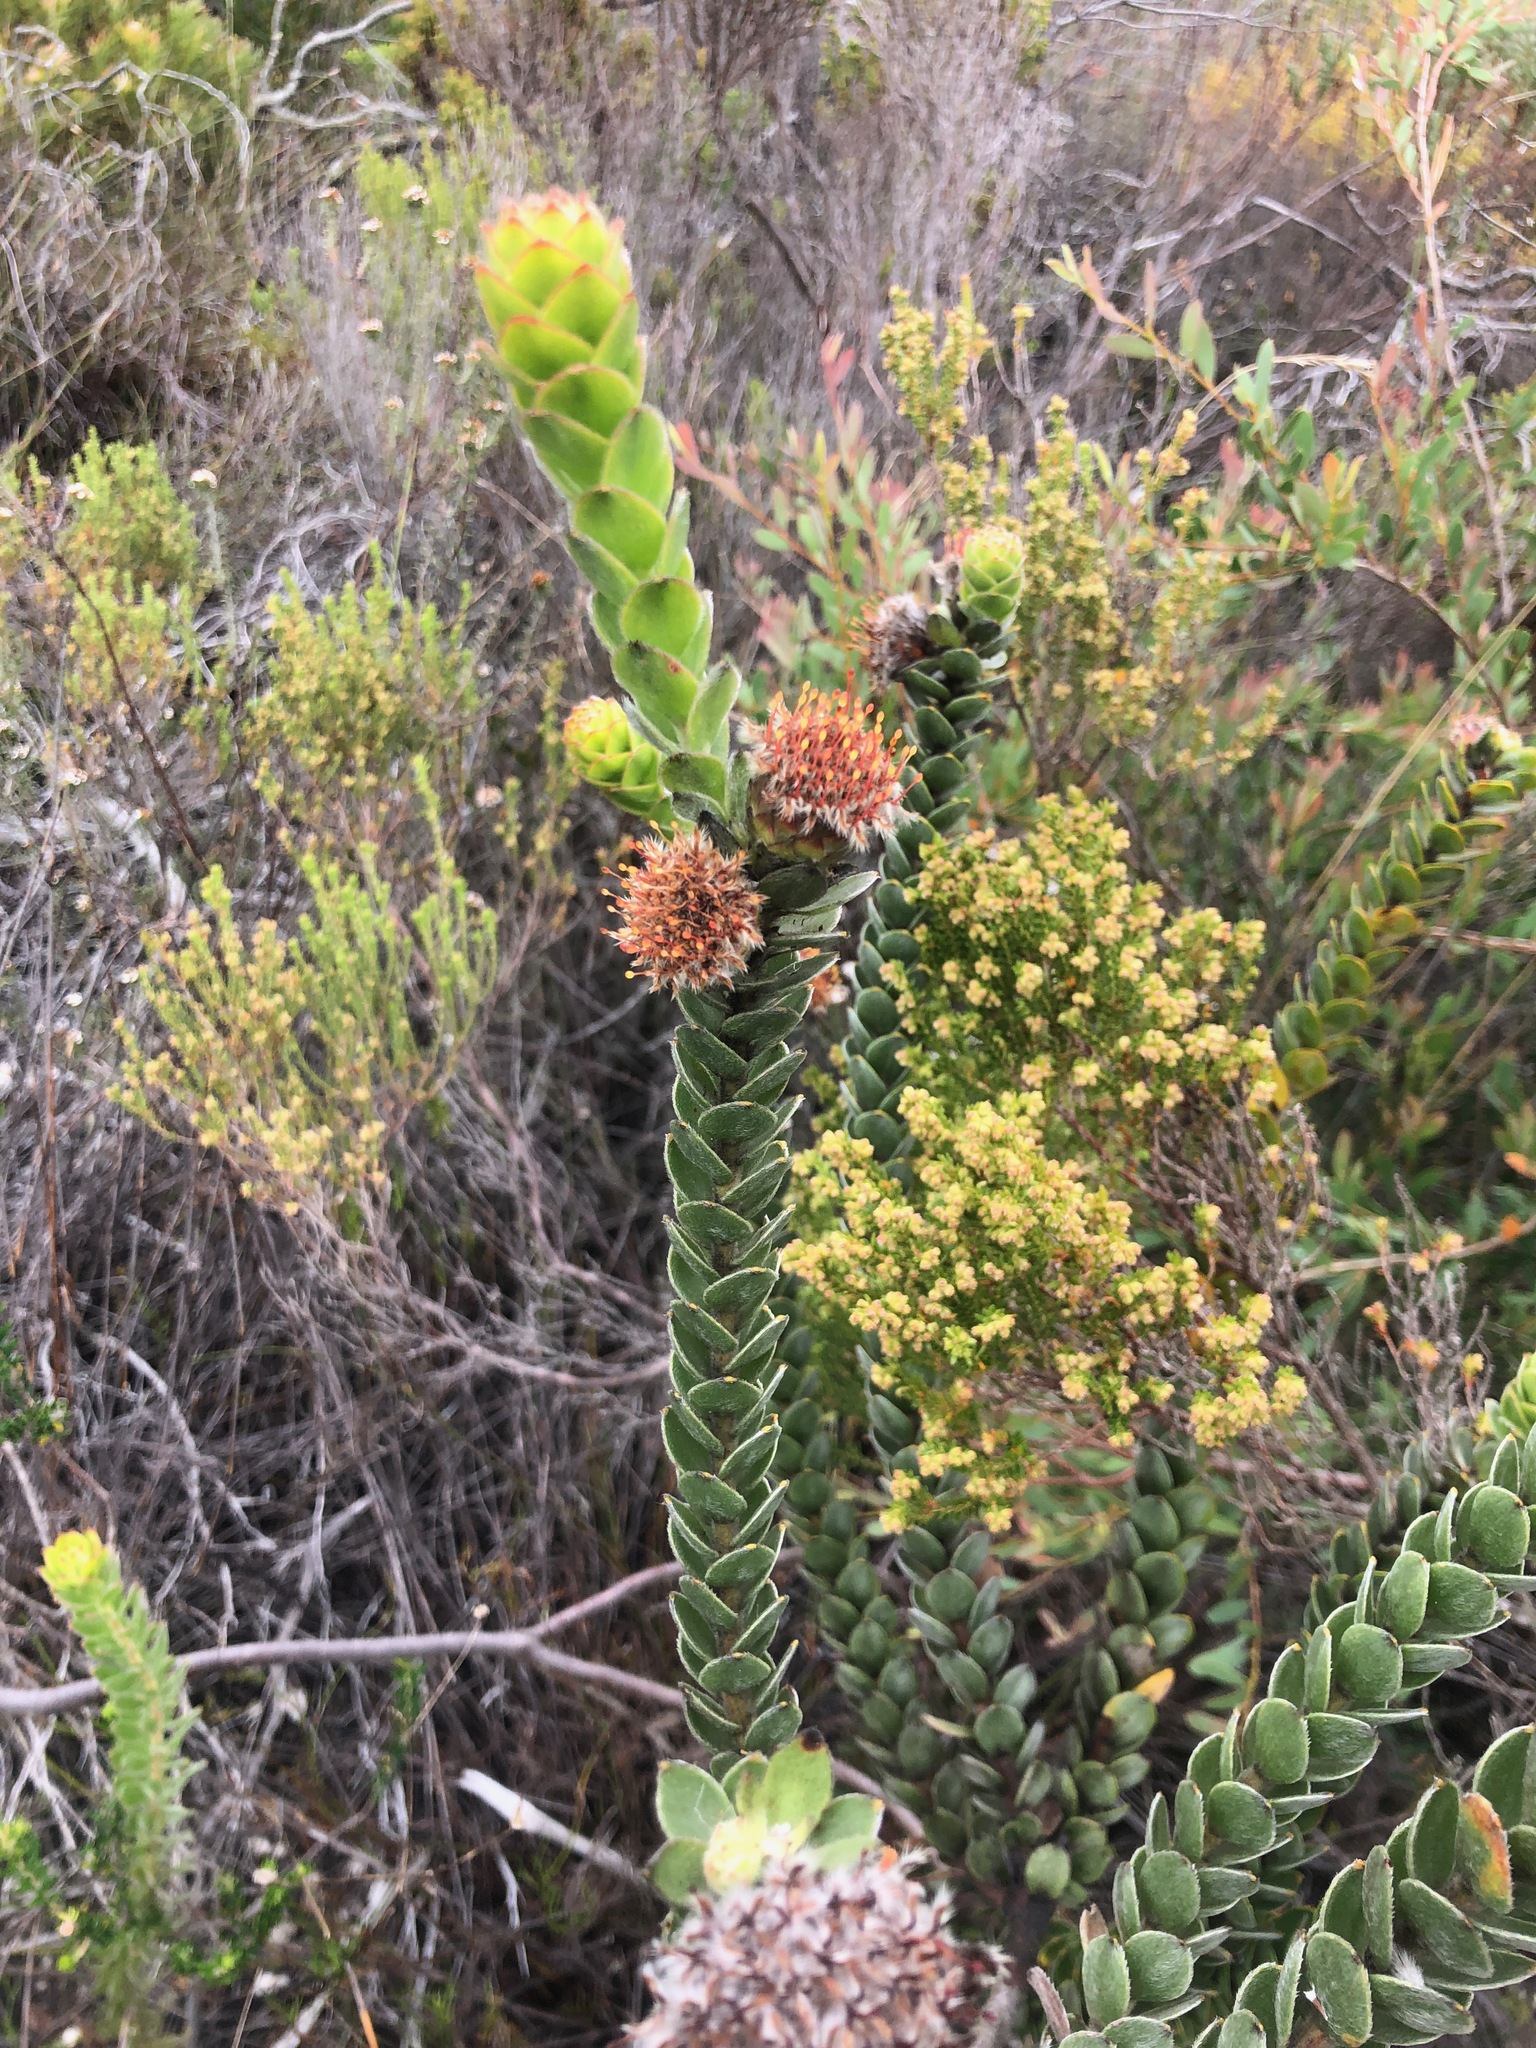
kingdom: Plantae
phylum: Tracheophyta
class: Magnoliopsida
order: Proteales
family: Proteaceae
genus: Leucospermum
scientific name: Leucospermum truncatulum
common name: Oval-leaf pincushion
